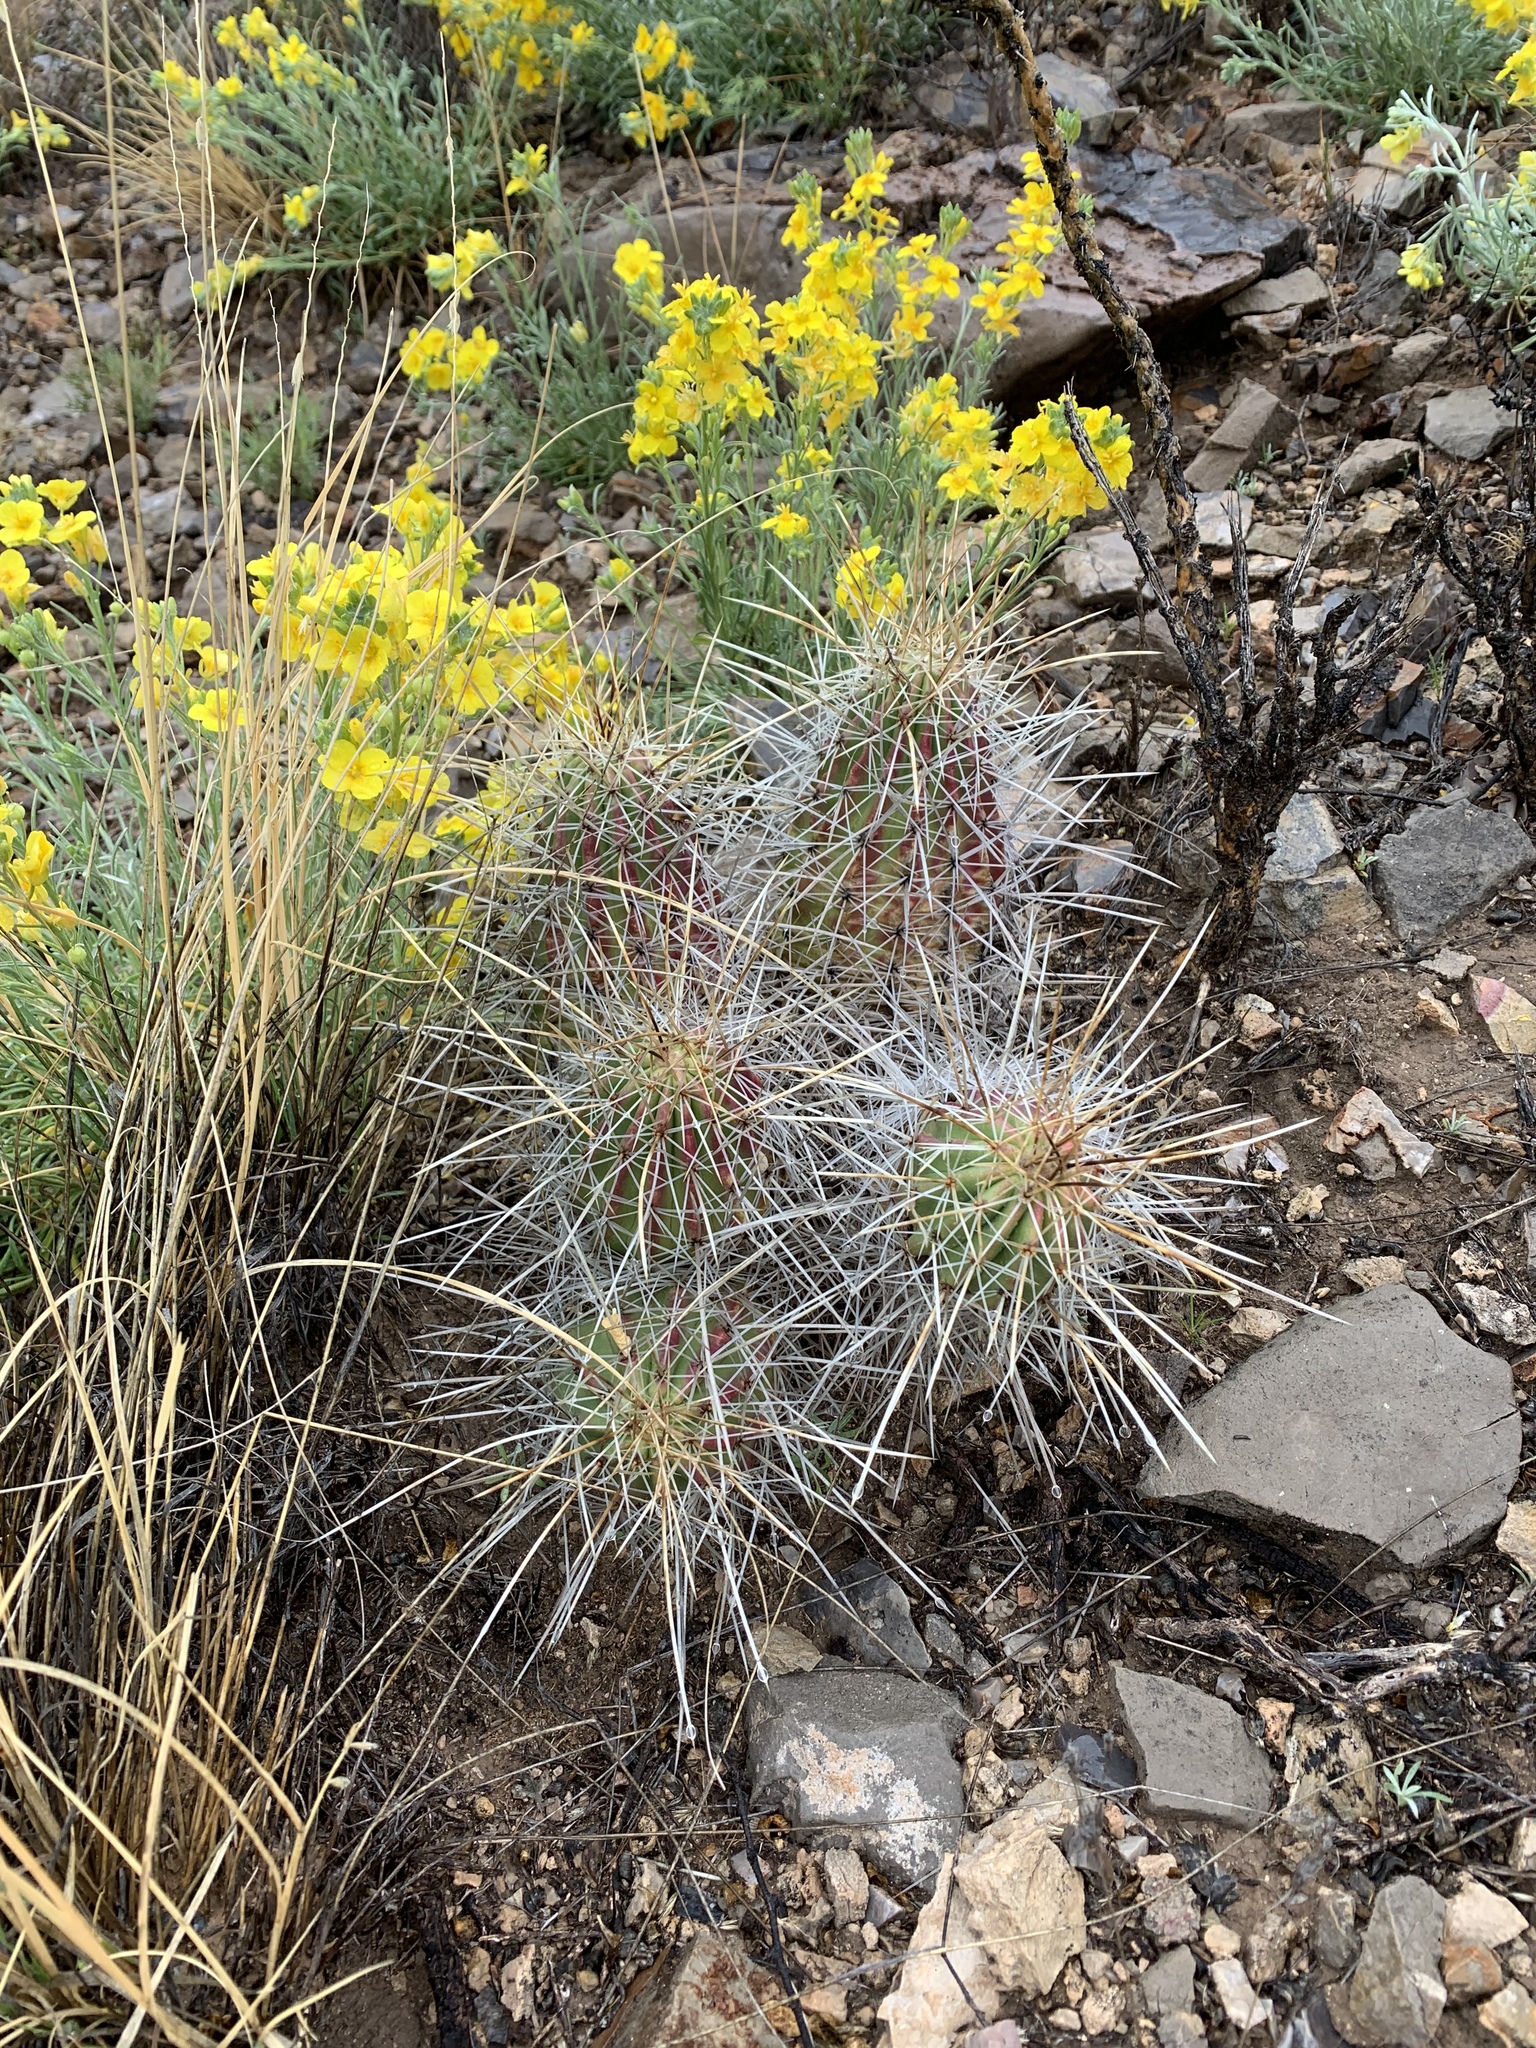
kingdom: Plantae
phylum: Tracheophyta
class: Magnoliopsida
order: Caryophyllales
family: Cactaceae
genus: Echinocereus
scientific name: Echinocereus stramineus
